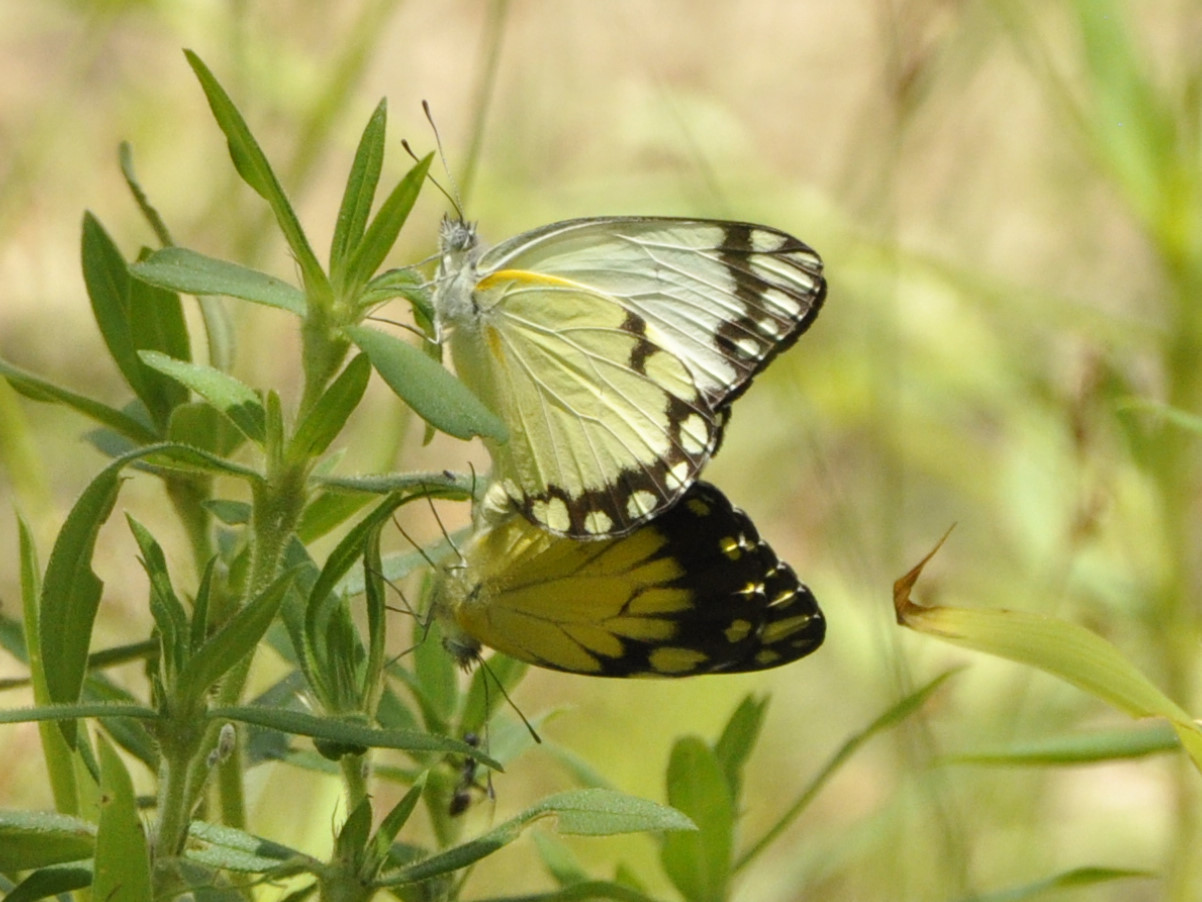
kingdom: Animalia
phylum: Arthropoda
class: Insecta
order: Lepidoptera
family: Pieridae
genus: Belenois
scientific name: Belenois creona
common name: African caper white
